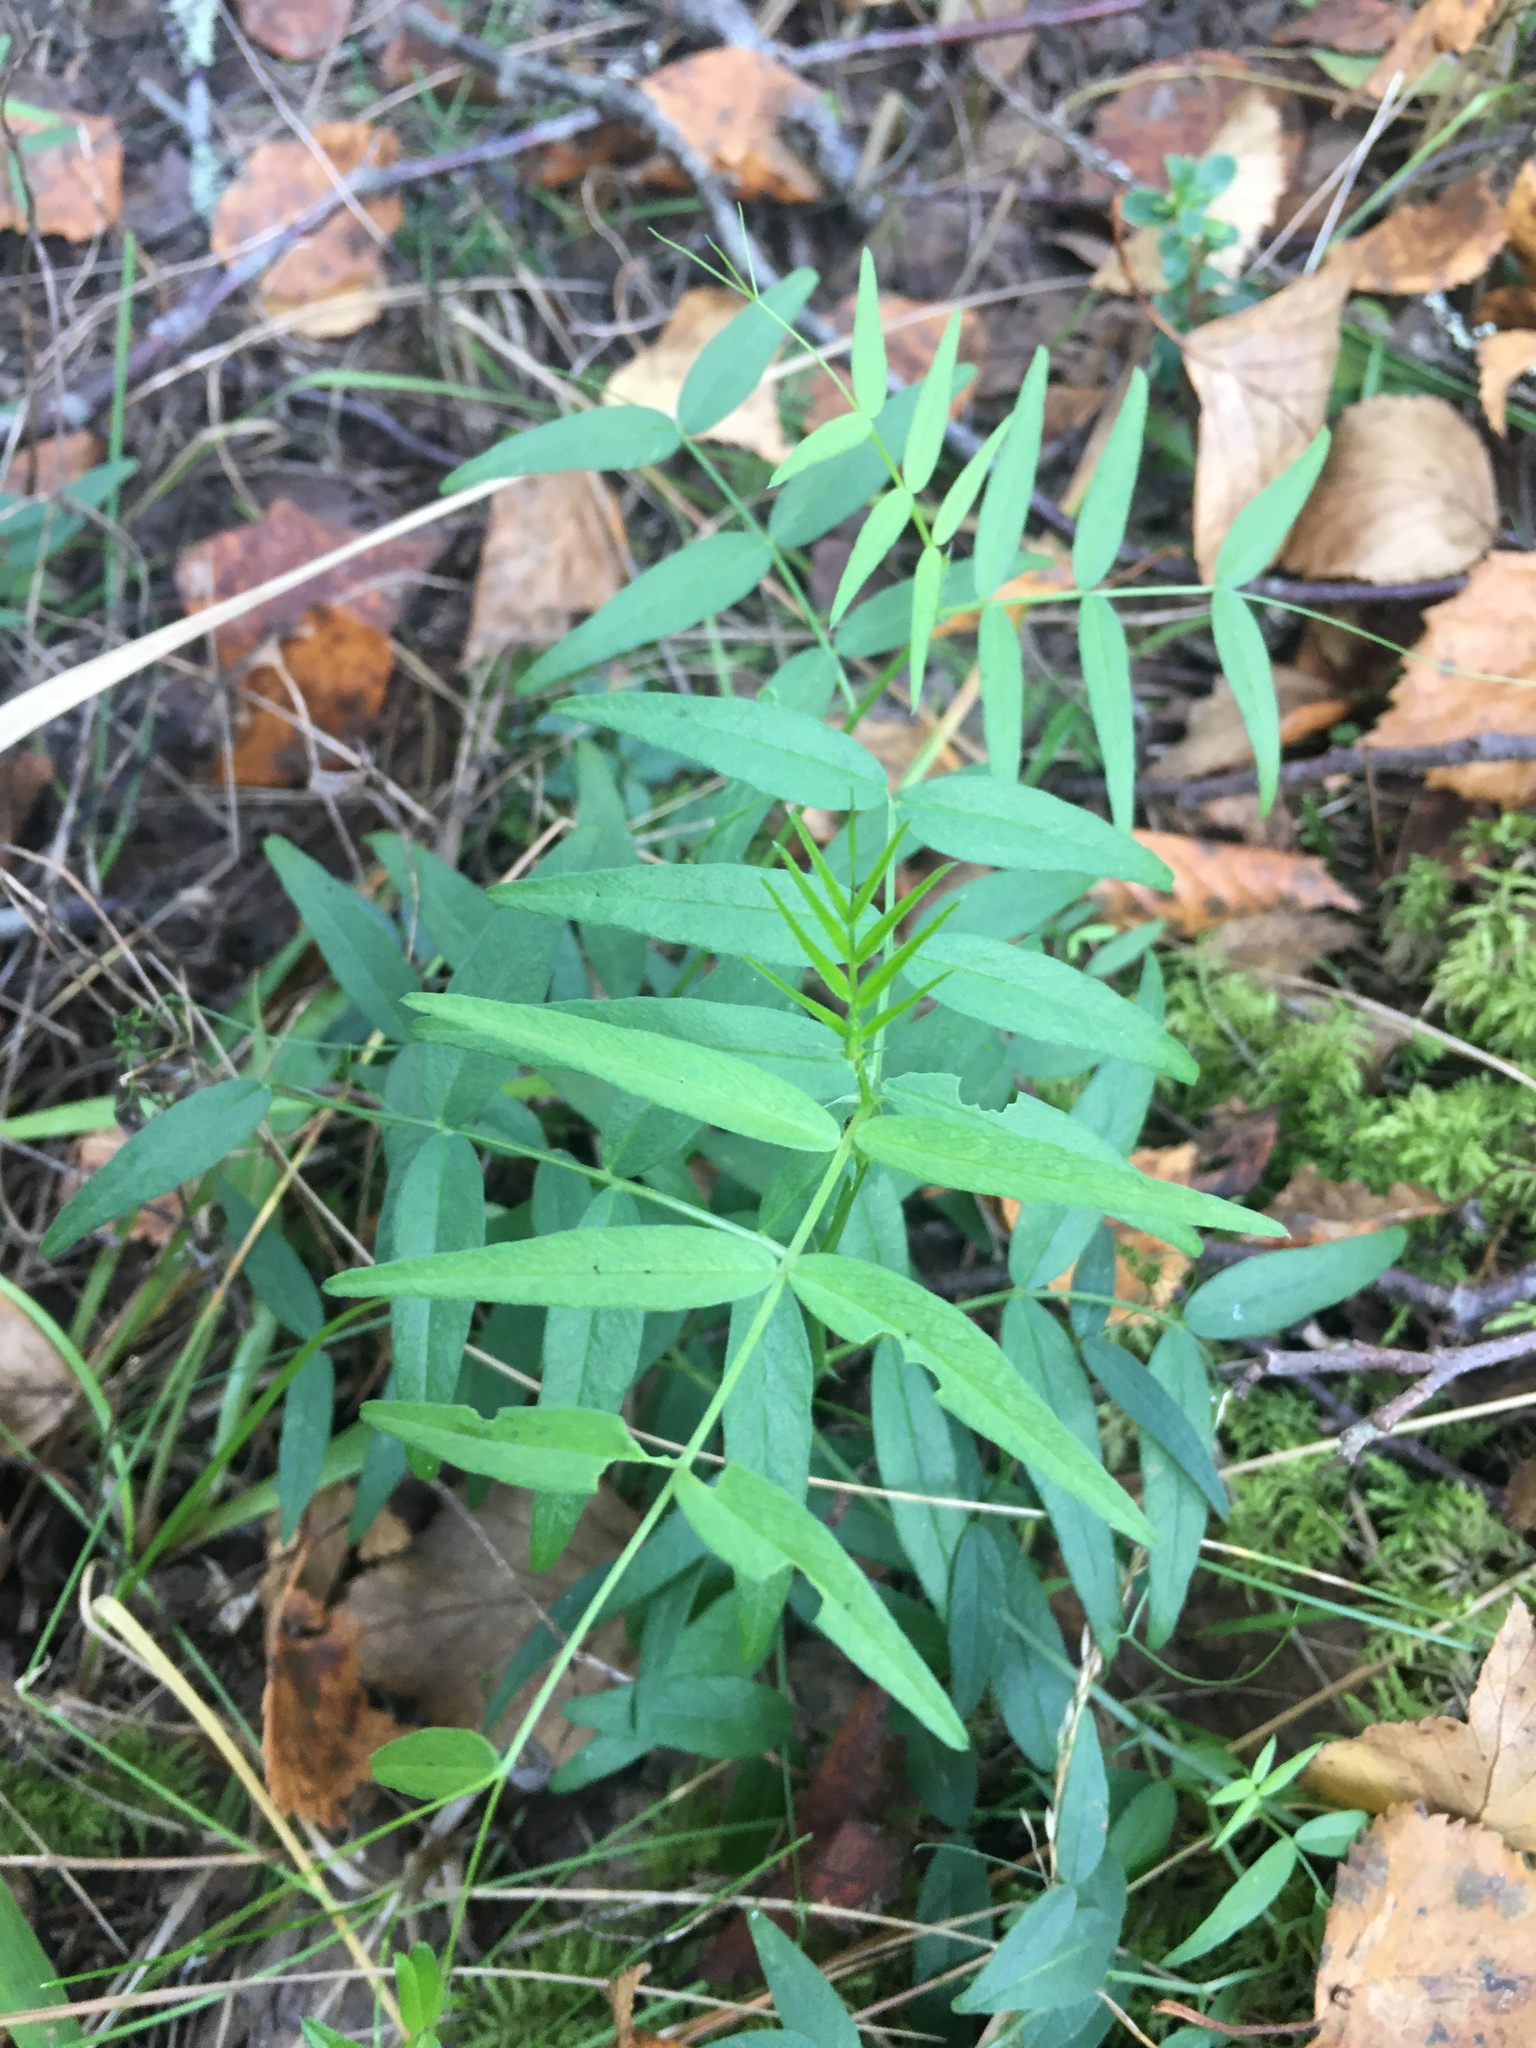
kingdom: Plantae
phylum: Tracheophyta
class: Magnoliopsida
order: Fabales
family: Fabaceae
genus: Vicia
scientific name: Vicia sepium
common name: Bush vetch
